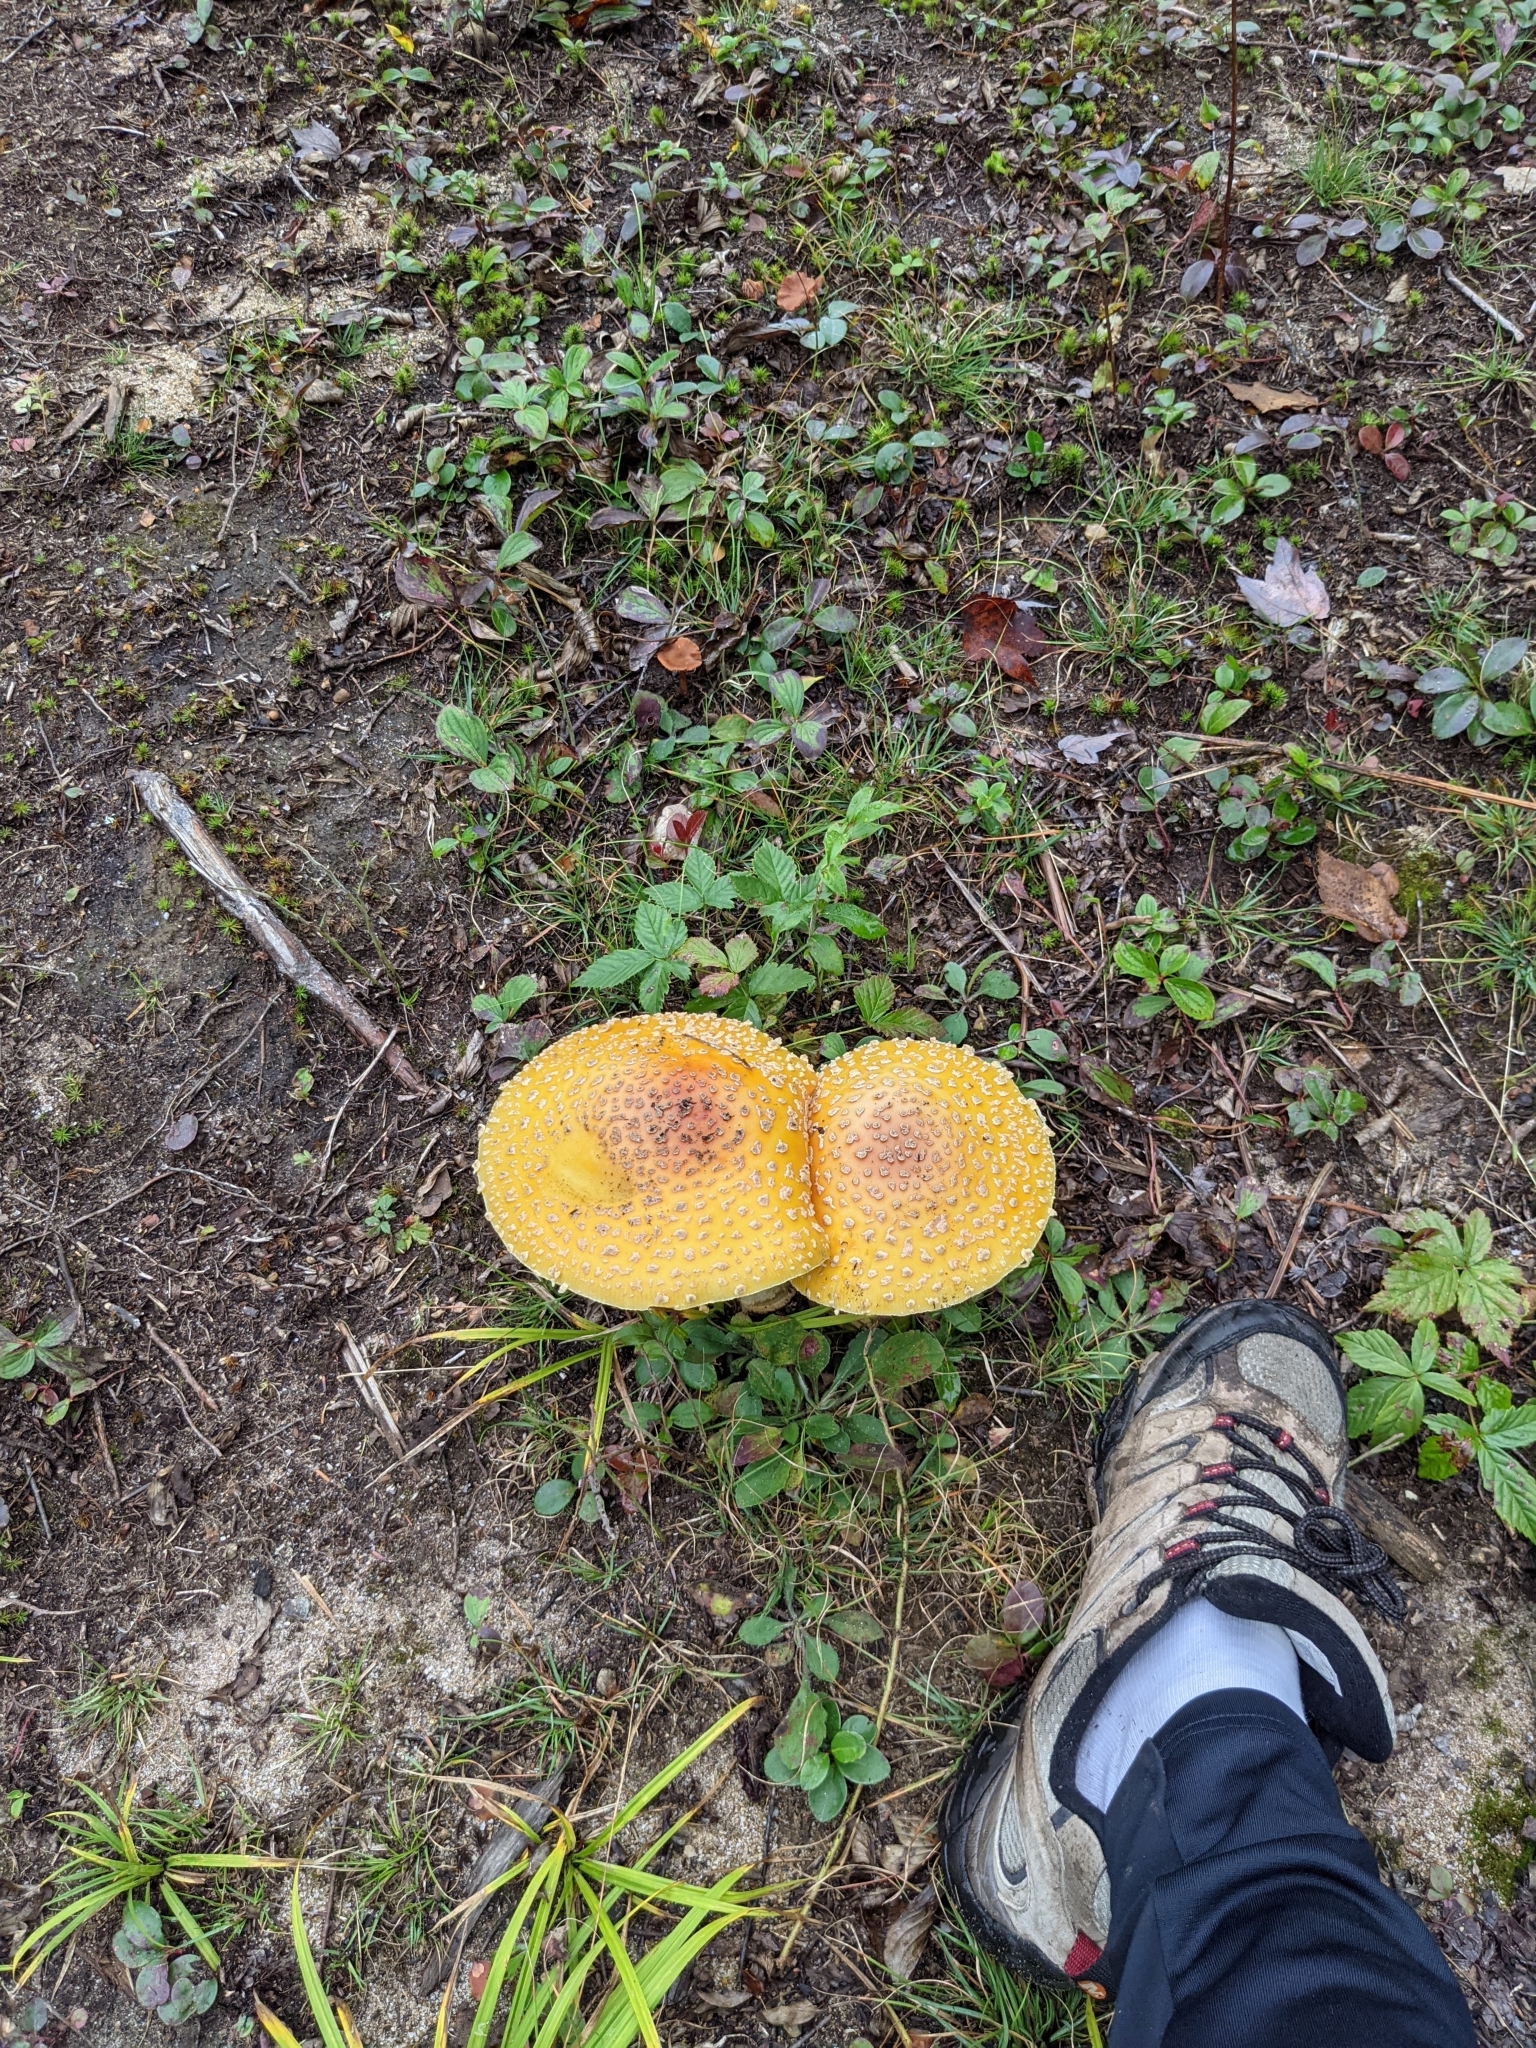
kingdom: Fungi
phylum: Basidiomycota
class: Agaricomycetes
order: Agaricales
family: Amanitaceae
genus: Amanita
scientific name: Amanita muscaria
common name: Fly agaric
